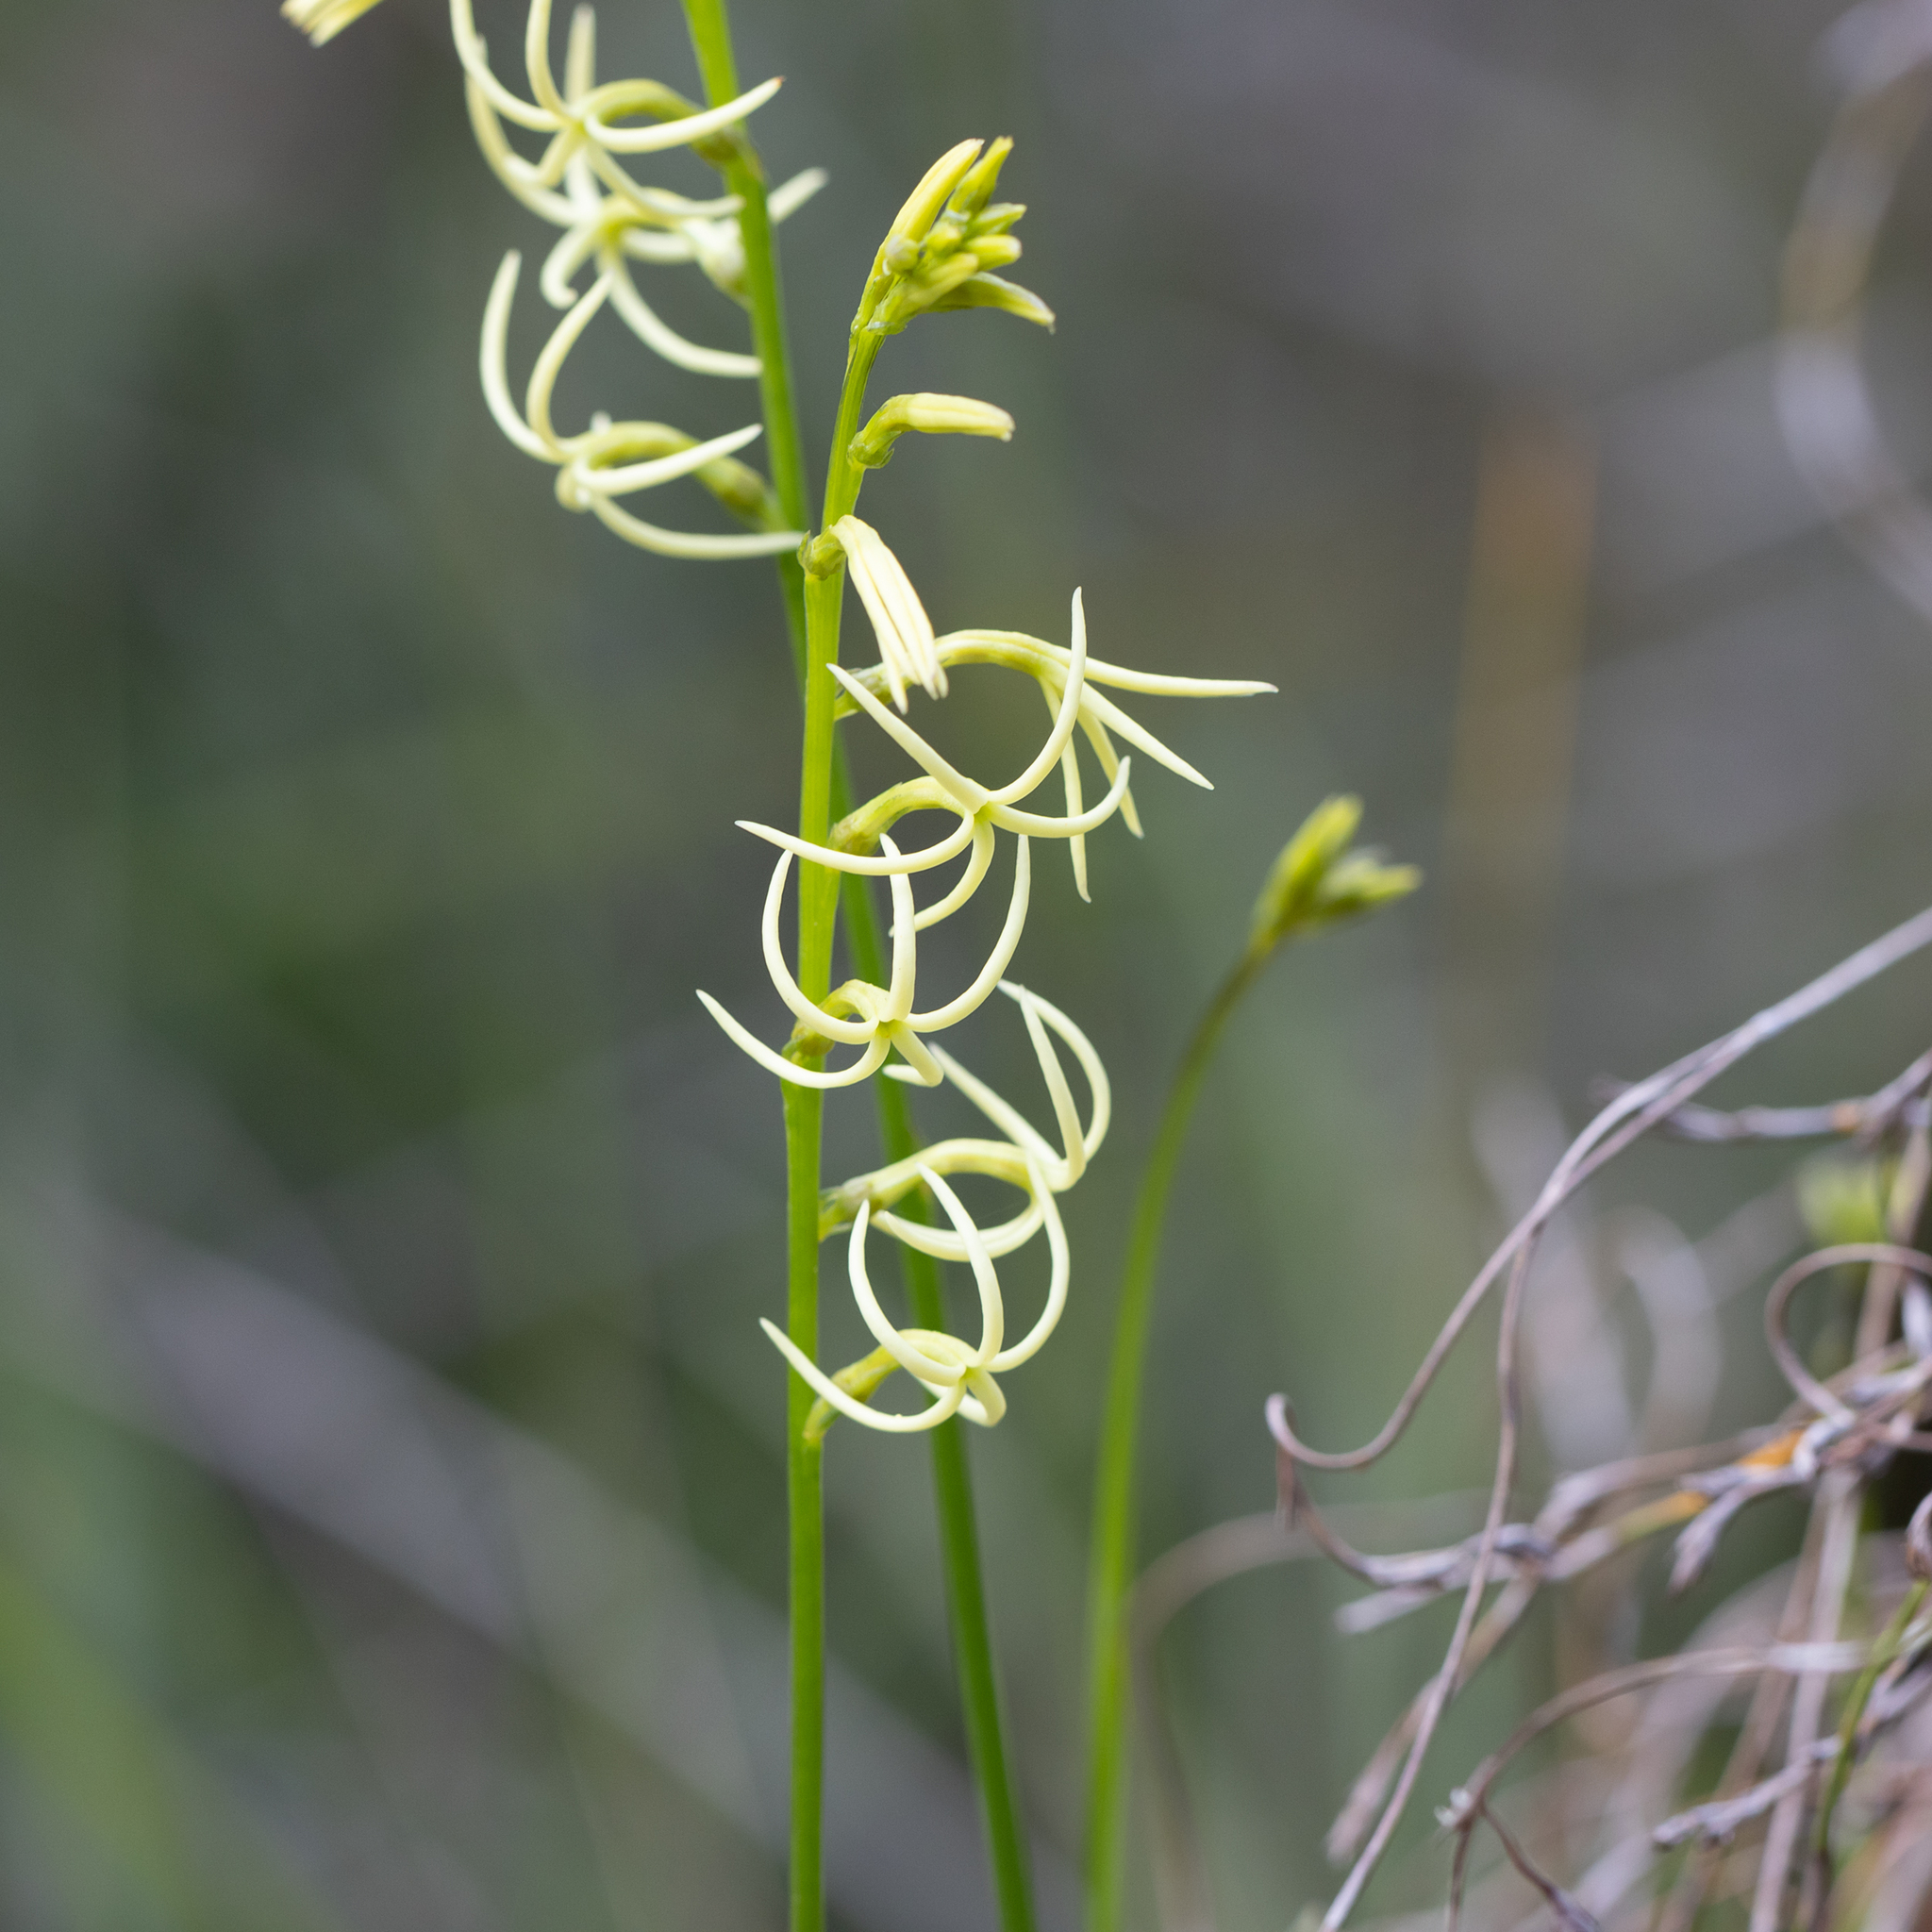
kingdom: Plantae
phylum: Tracheophyta
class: Magnoliopsida
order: Celastrales
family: Celastraceae
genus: Tripterococcus
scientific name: Tripterococcus brunonis
